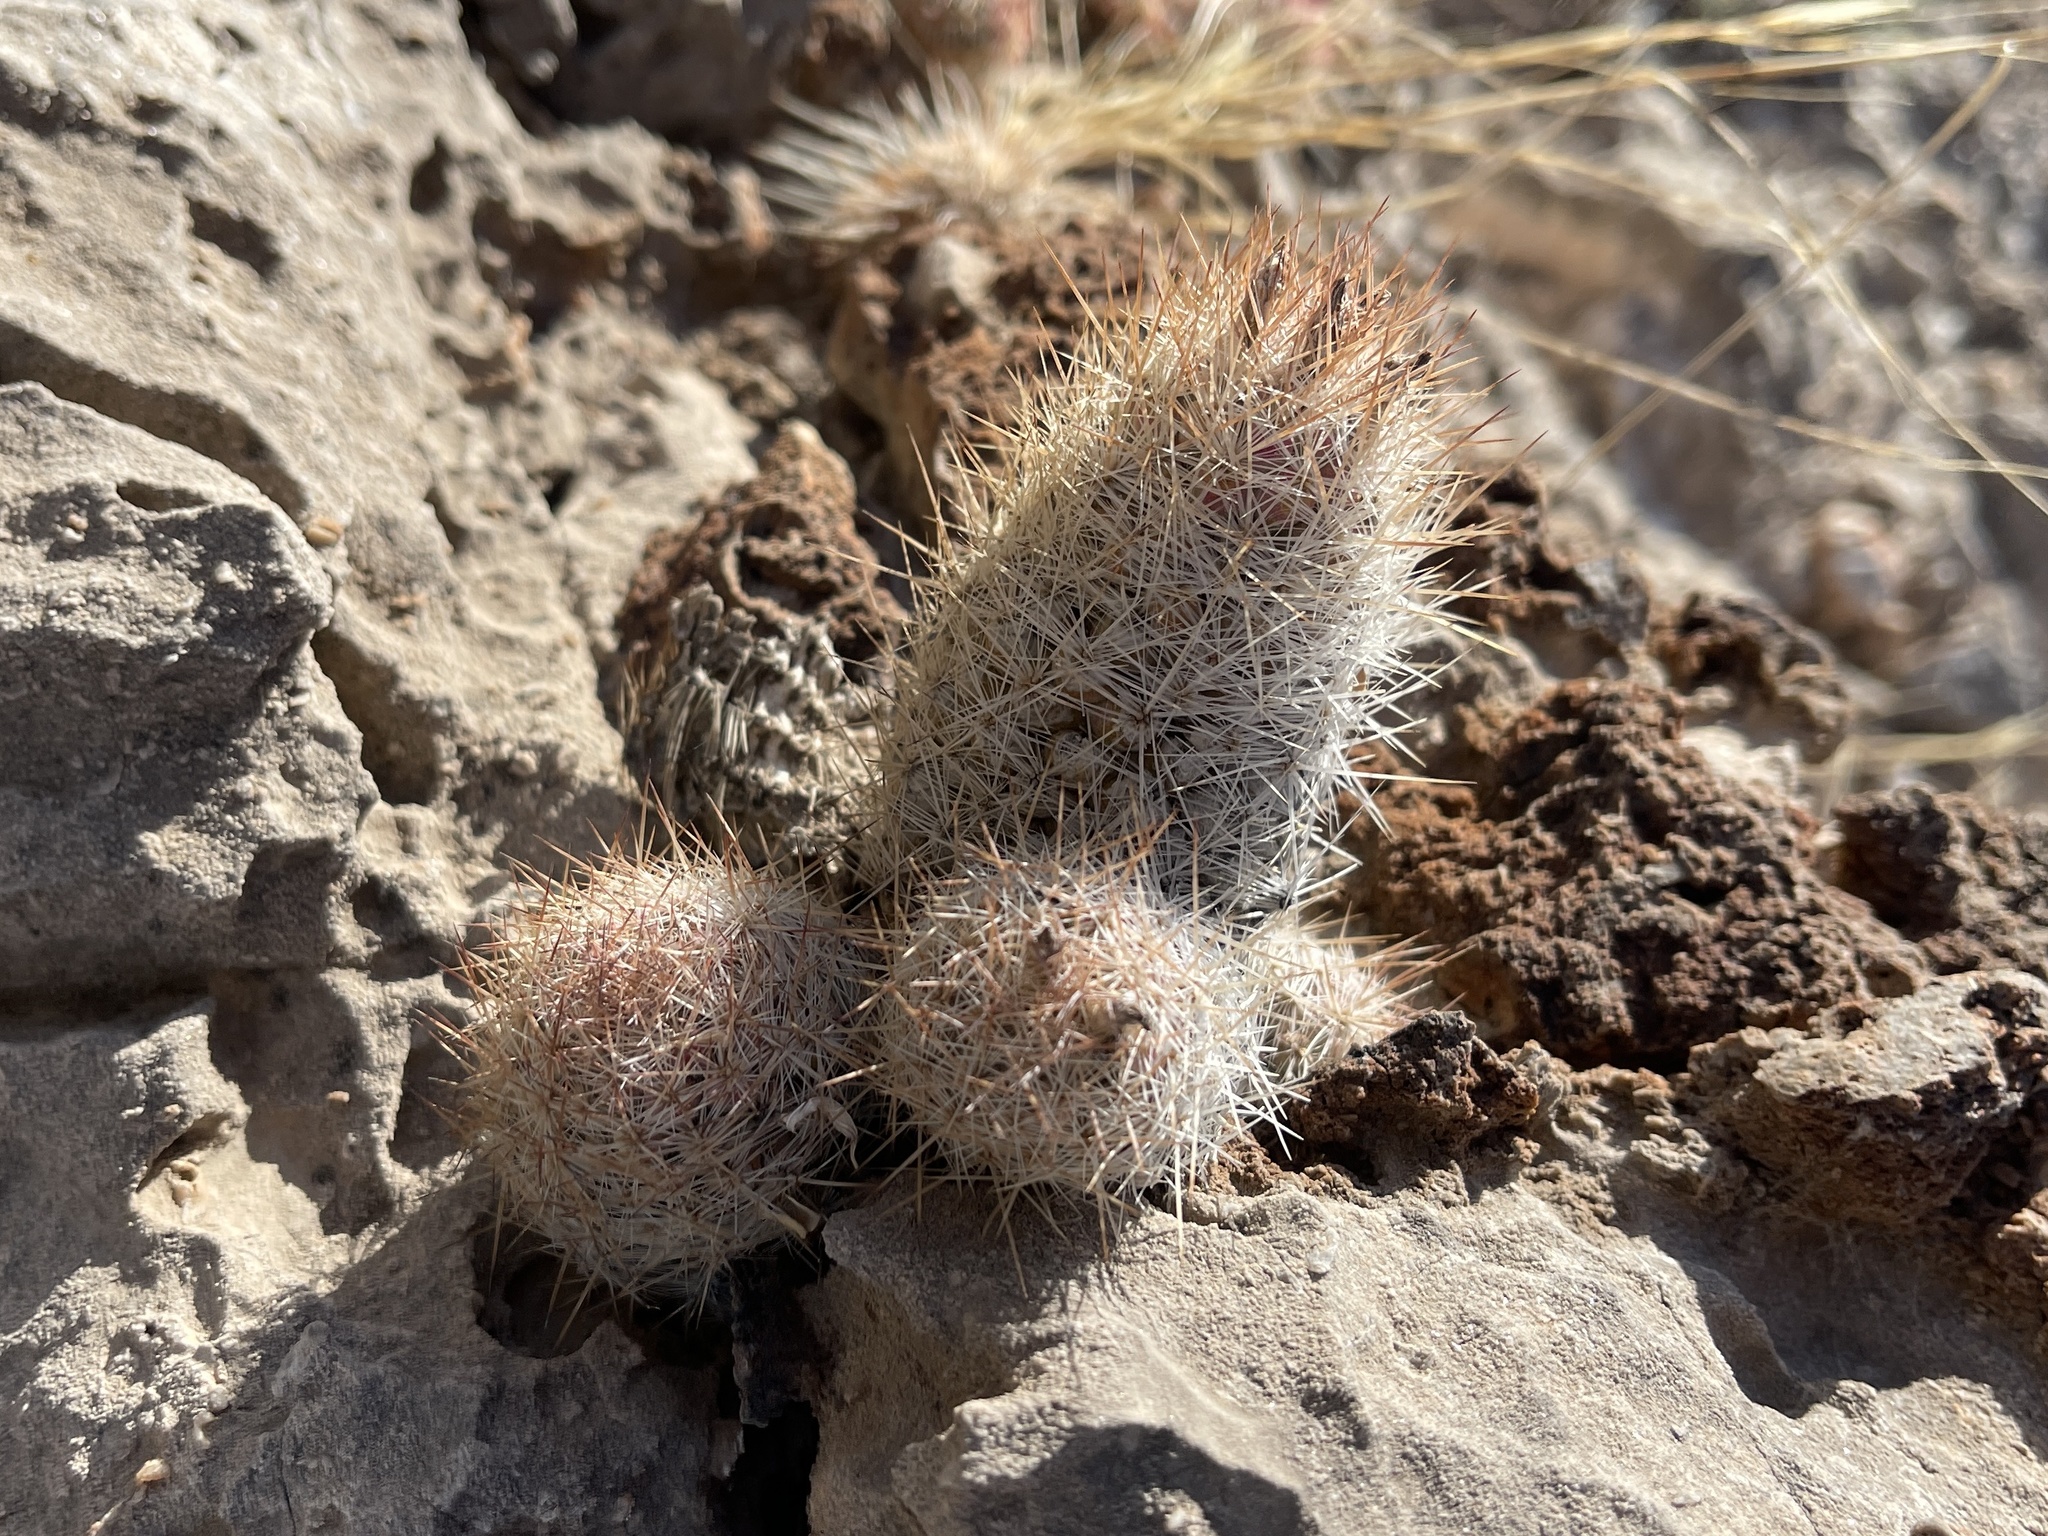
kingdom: Plantae
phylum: Tracheophyta
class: Magnoliopsida
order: Caryophyllales
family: Cactaceae
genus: Pelecyphora
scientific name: Pelecyphora tuberculosa
